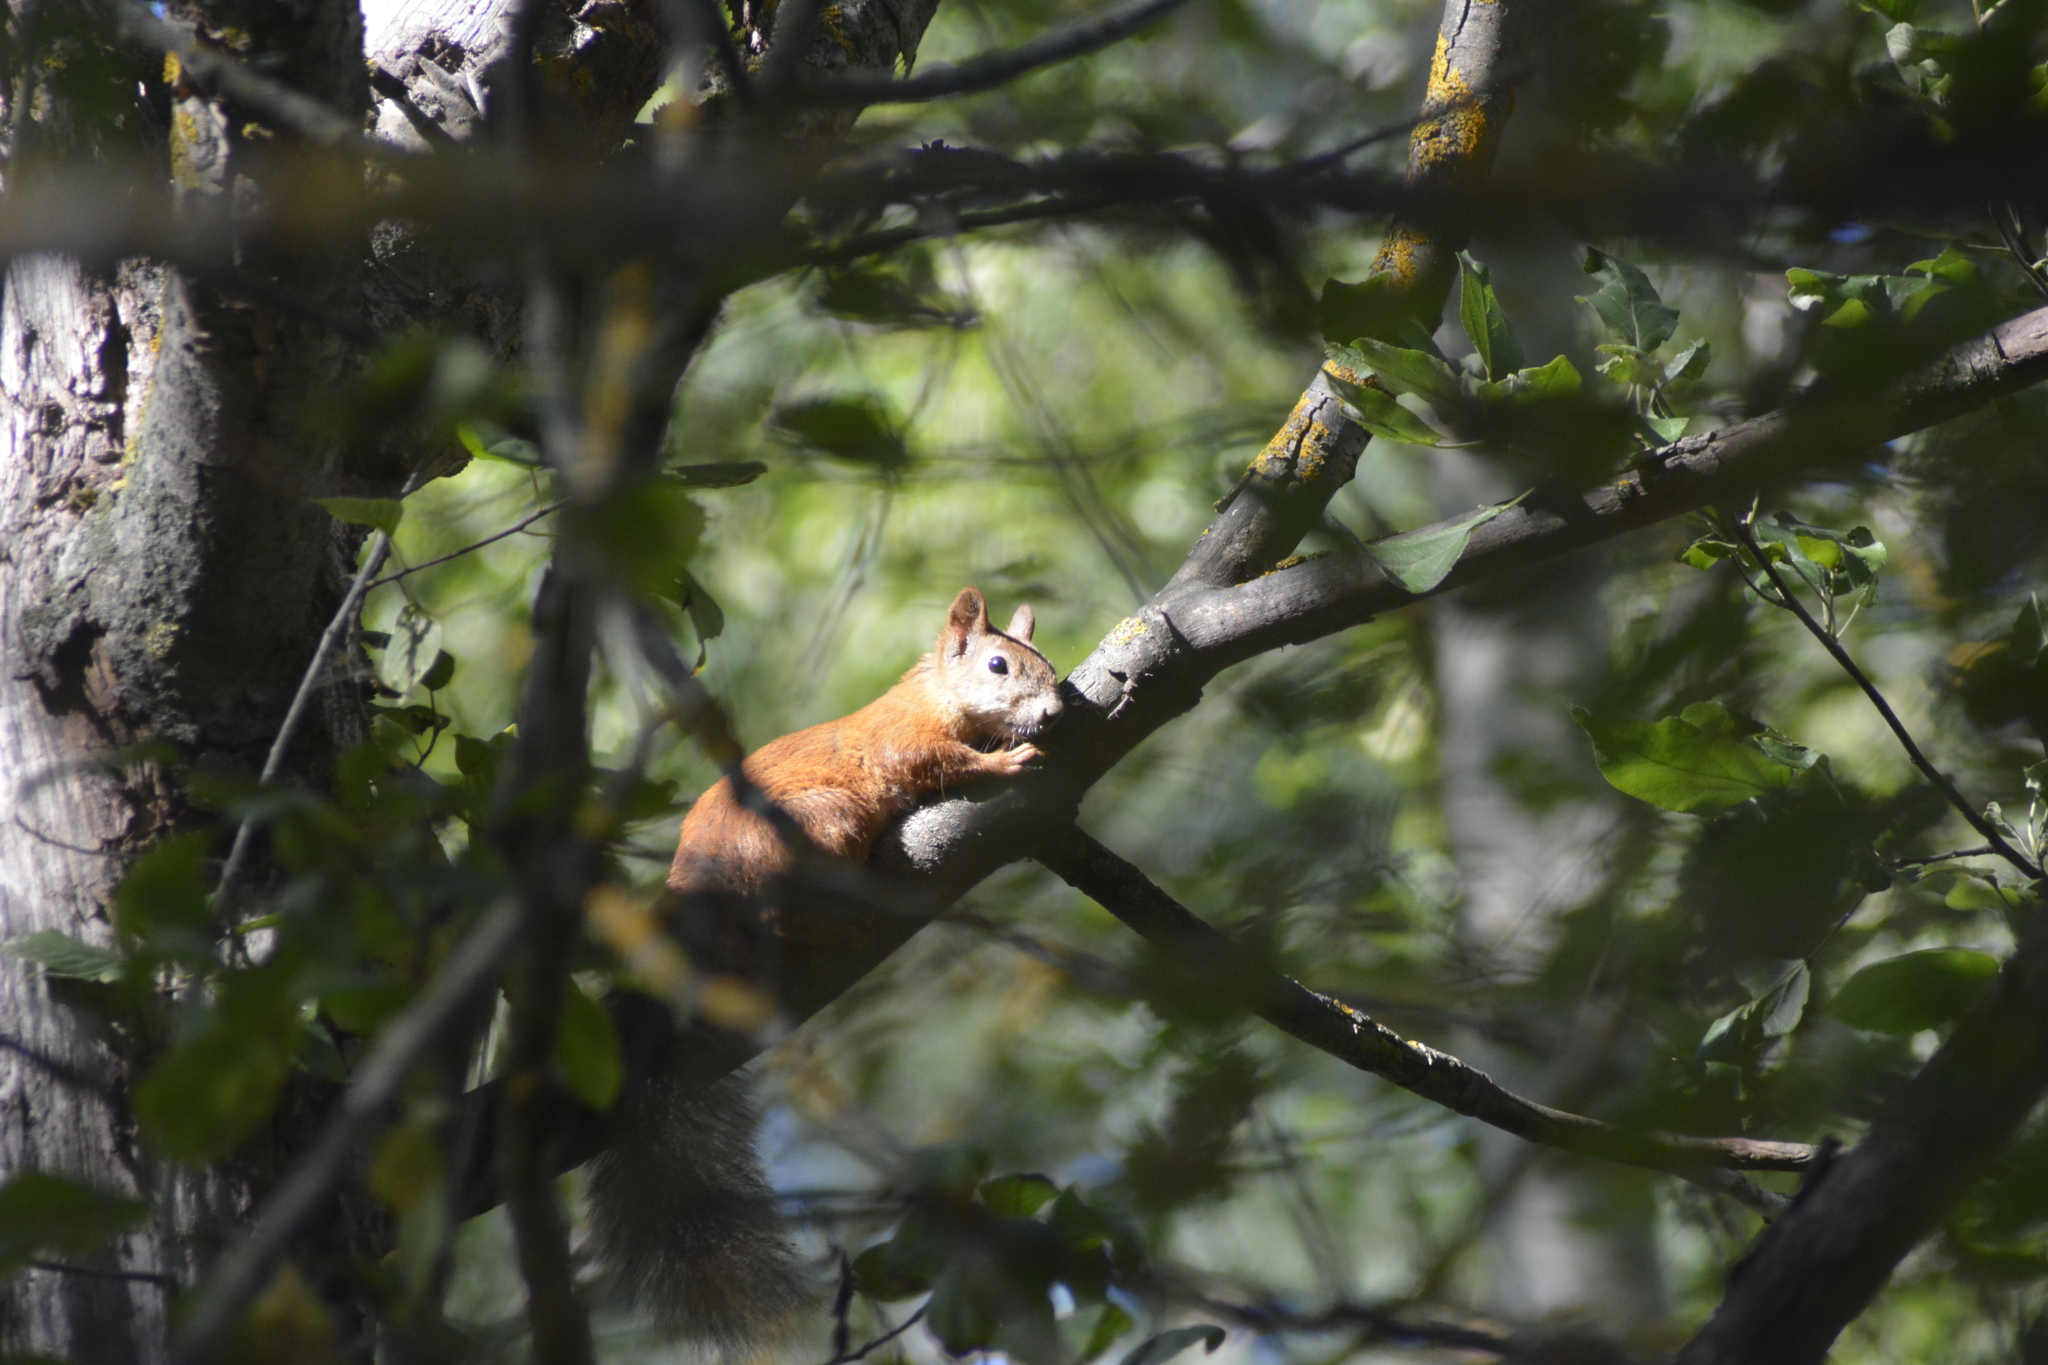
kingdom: Animalia
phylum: Chordata
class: Mammalia
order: Rodentia
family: Sciuridae
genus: Sciurus
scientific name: Sciurus vulgaris
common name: Eurasian red squirrel
